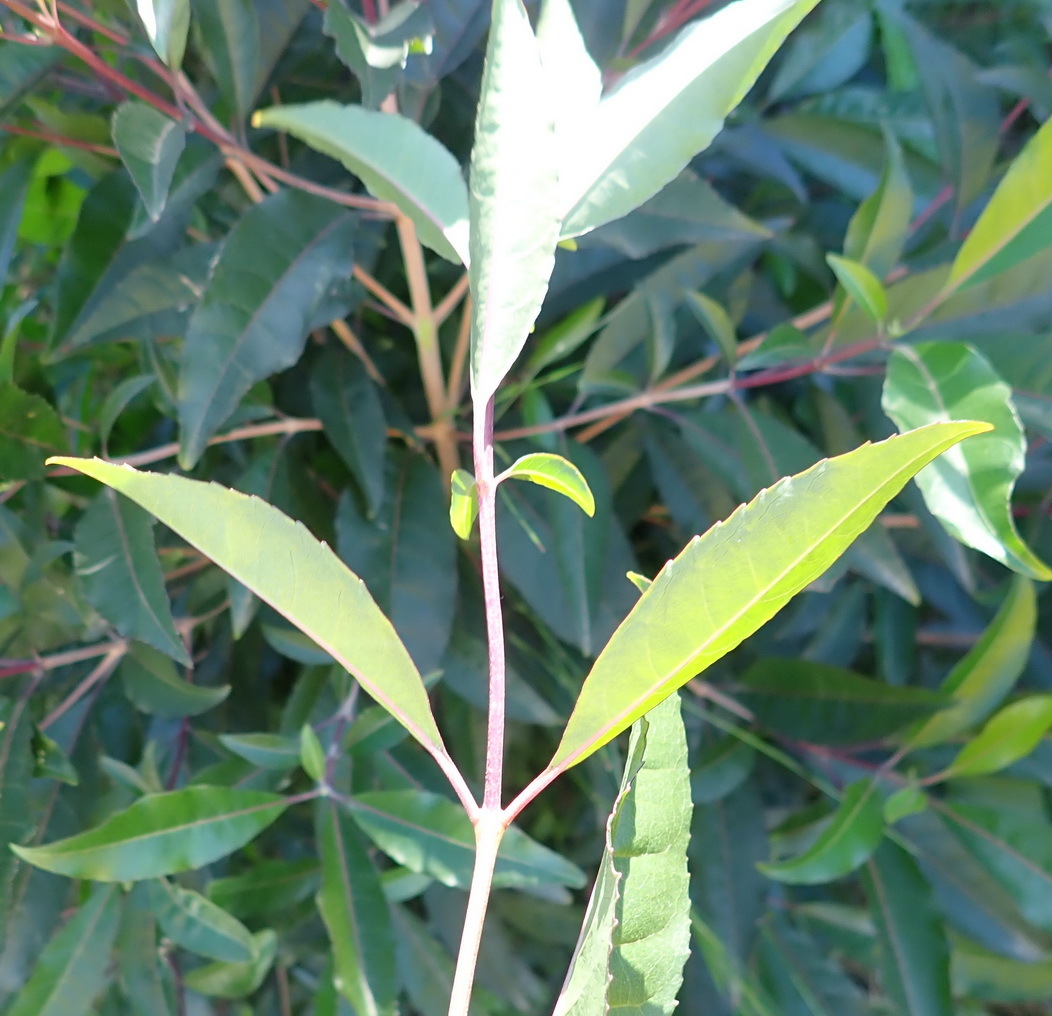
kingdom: Plantae
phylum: Tracheophyta
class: Magnoliopsida
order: Lamiales
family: Stilbaceae
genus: Nuxia
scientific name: Nuxia floribunda
